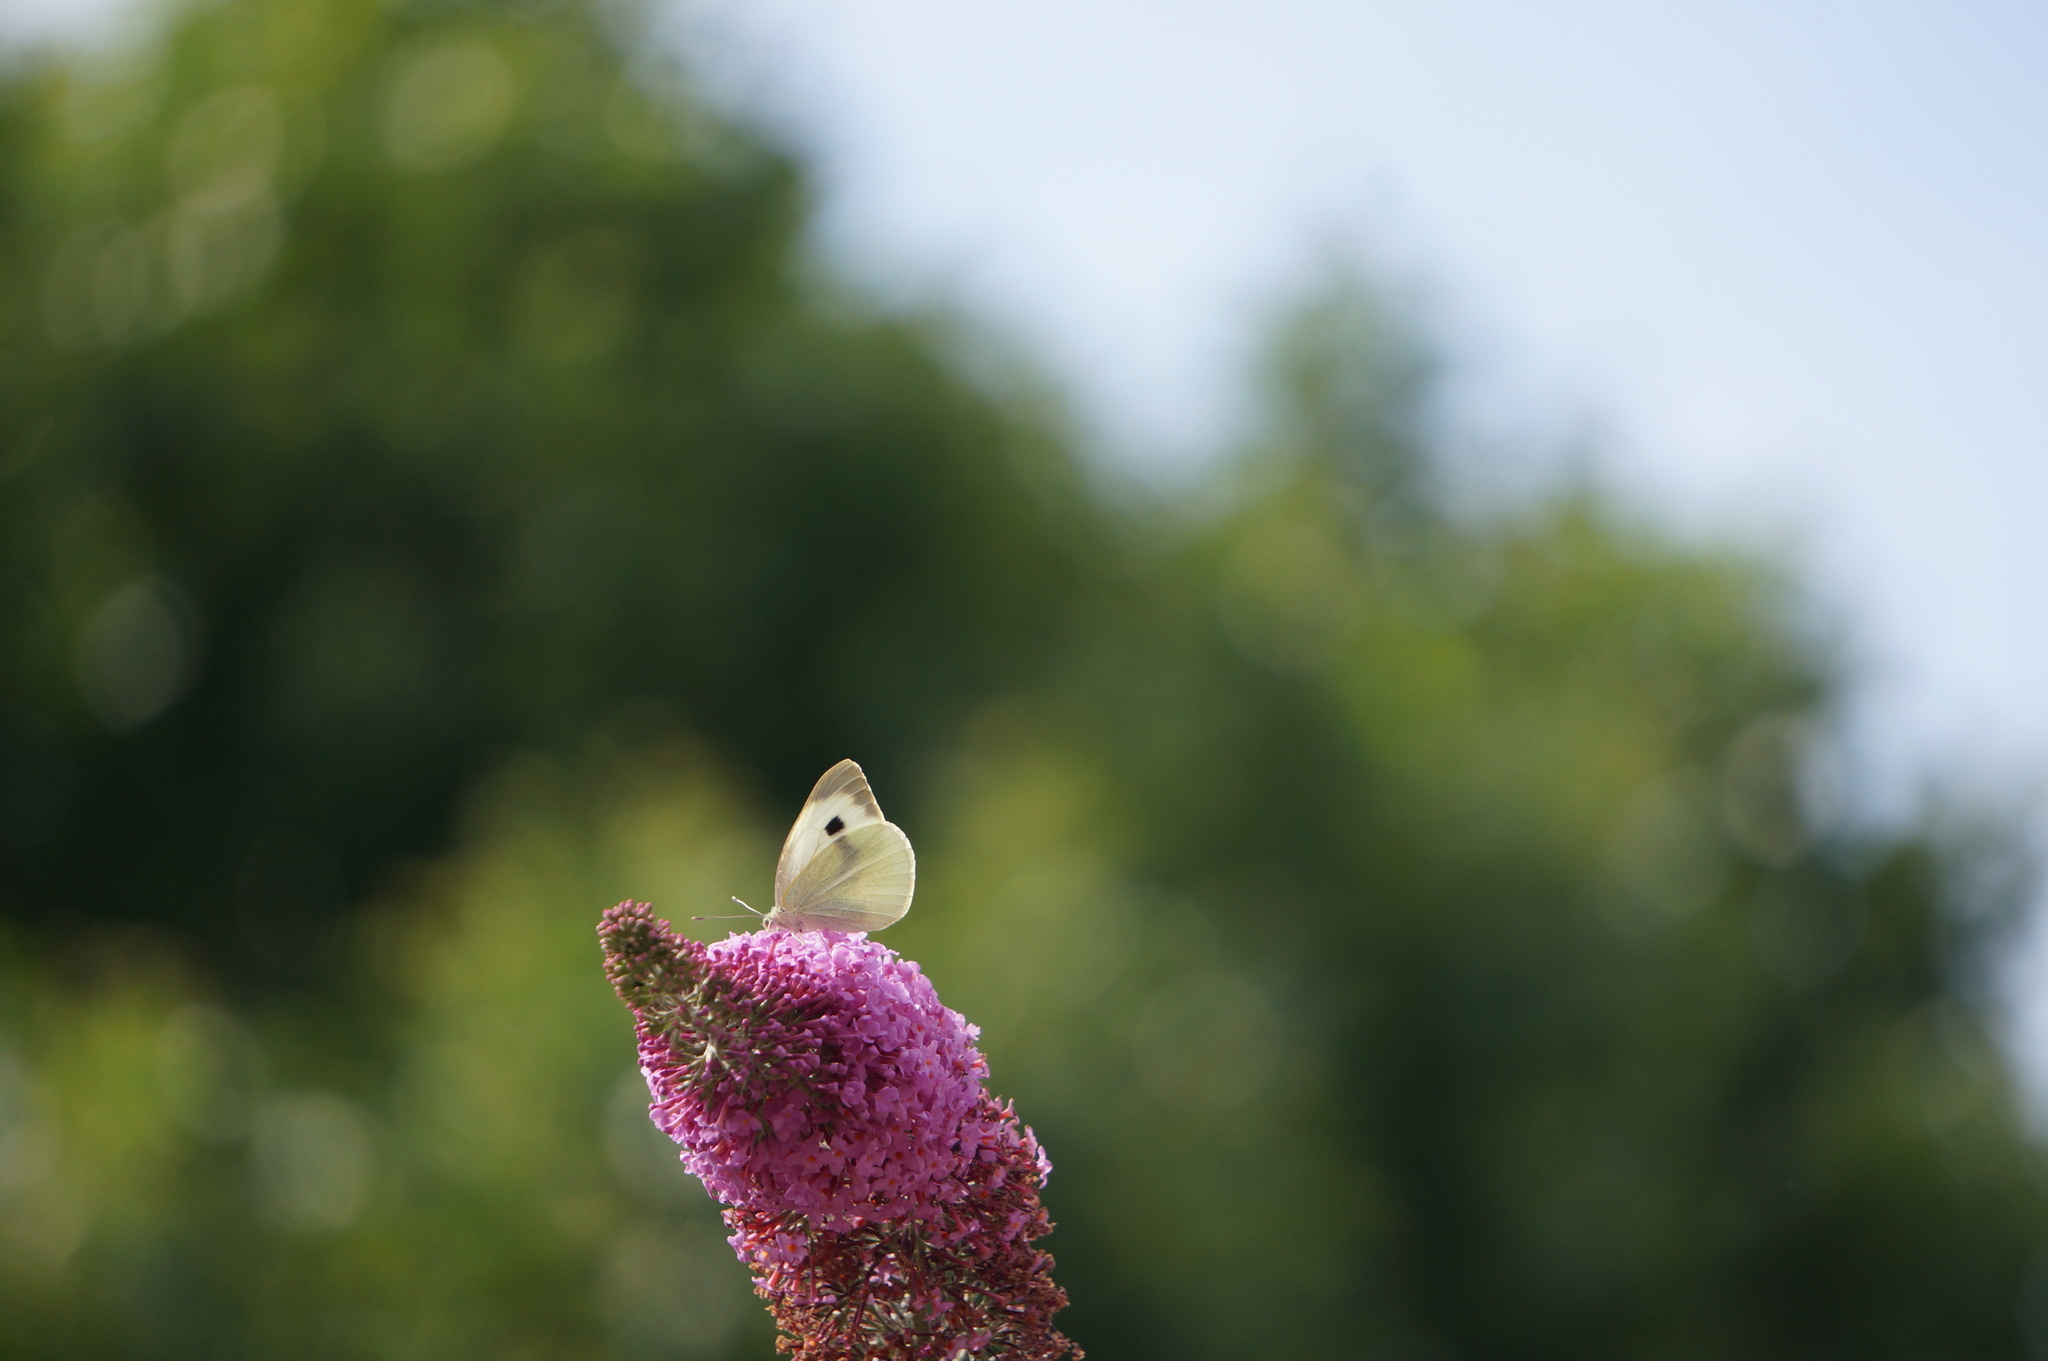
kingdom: Animalia
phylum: Arthropoda
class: Insecta
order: Lepidoptera
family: Pieridae
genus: Pieris
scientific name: Pieris brassicae
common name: Large white
